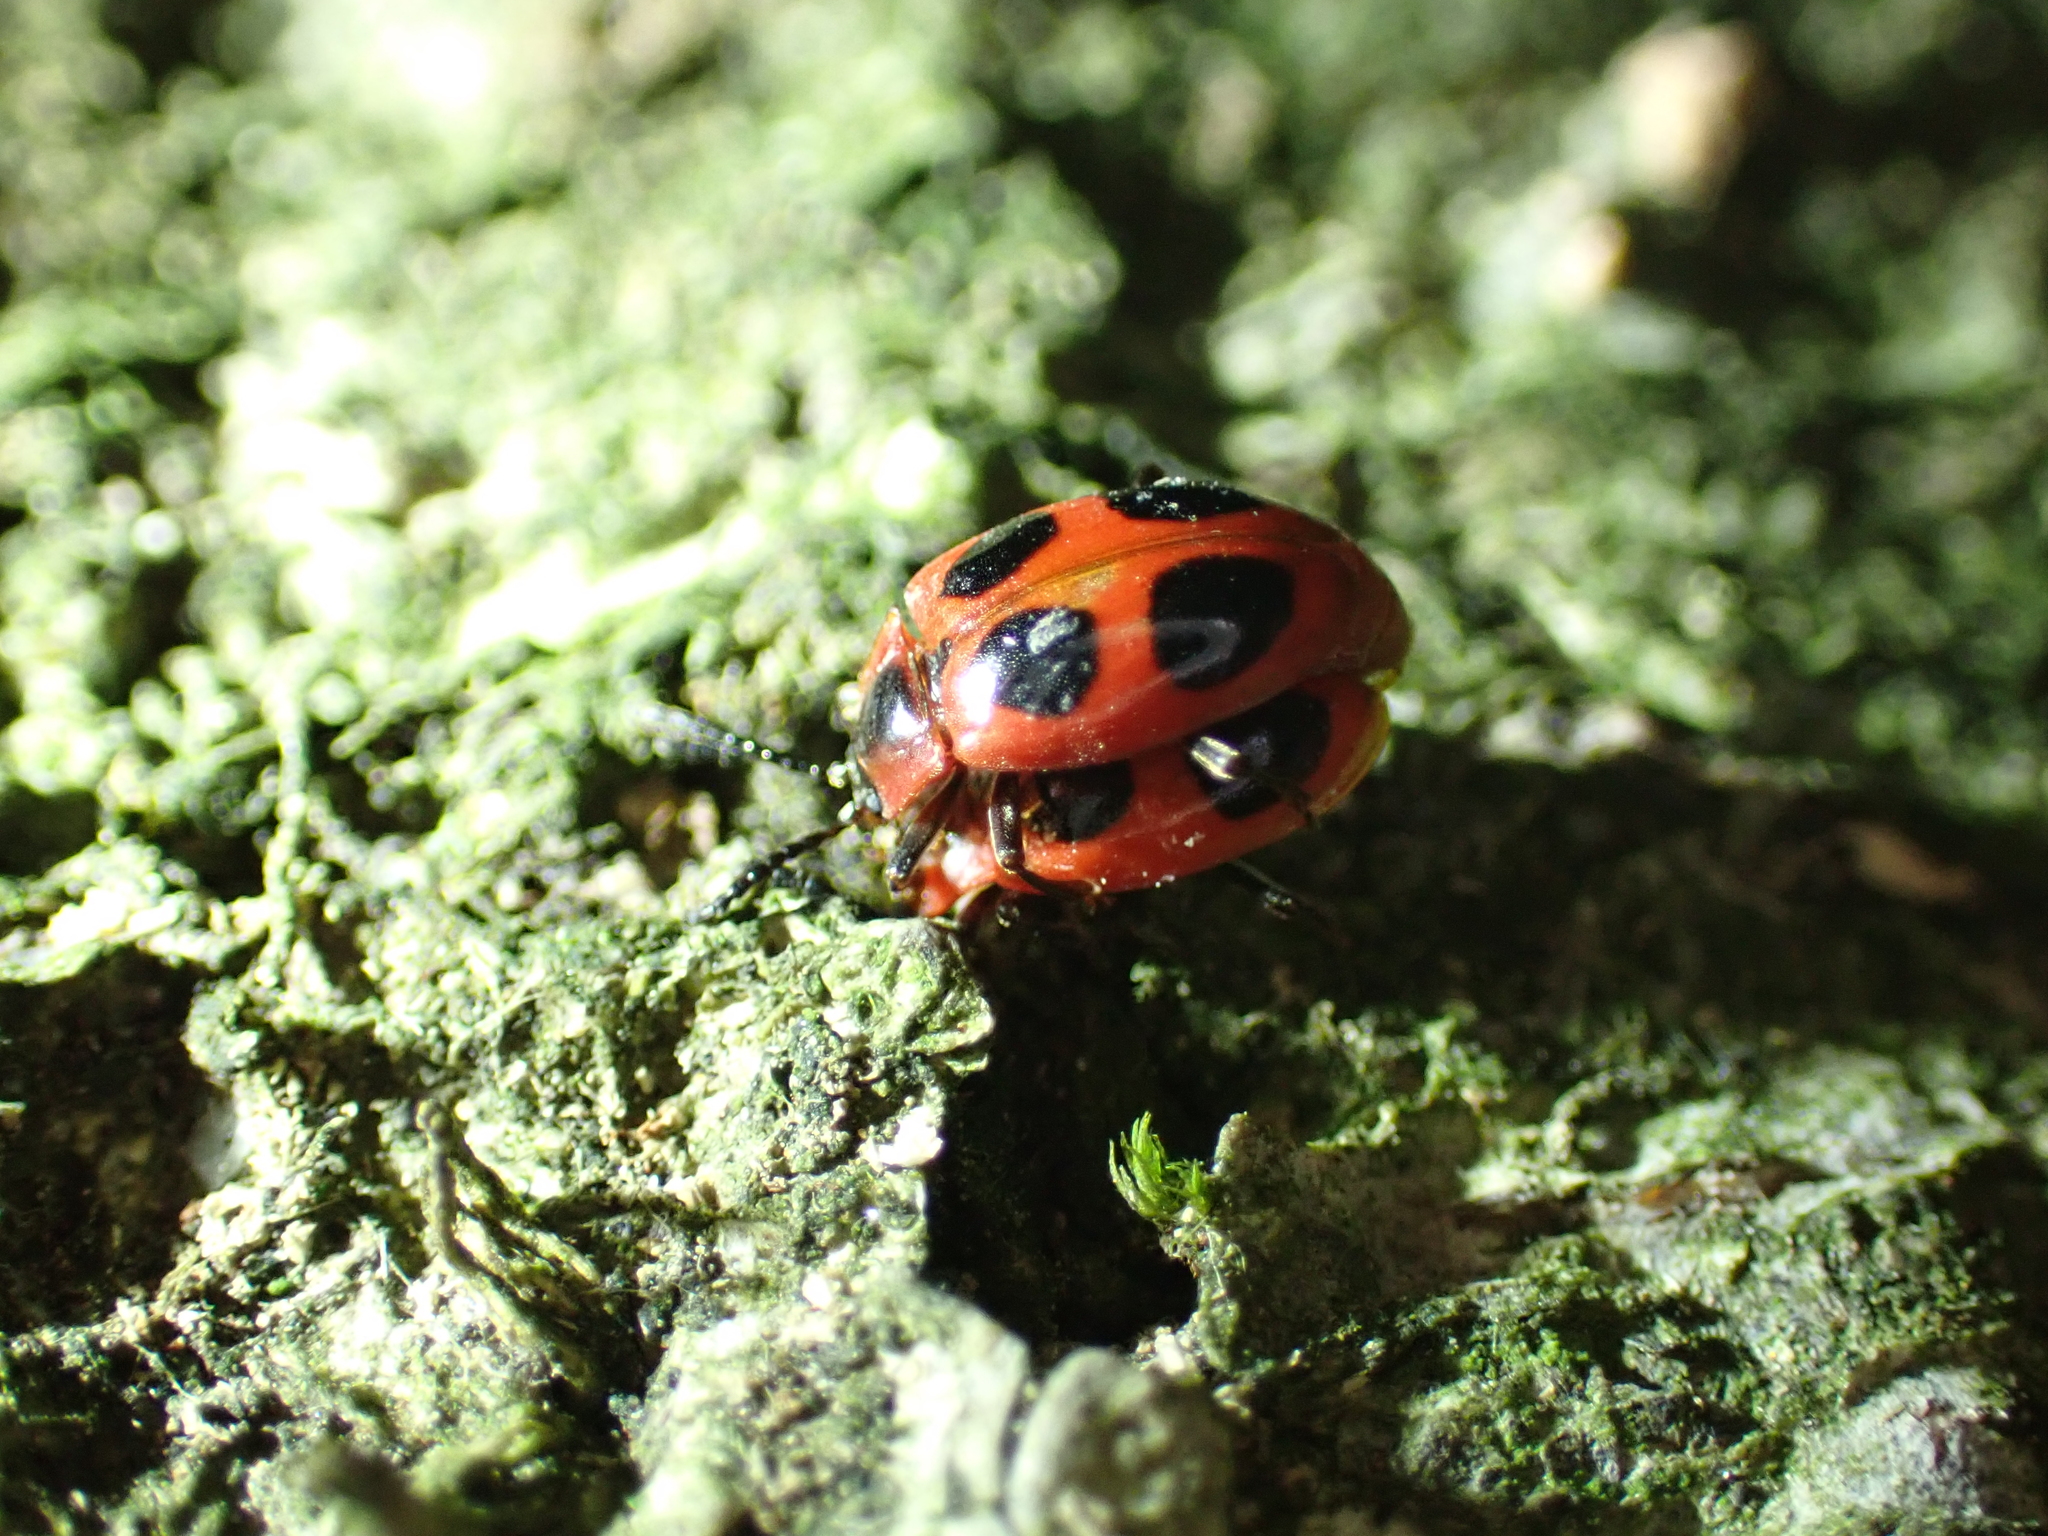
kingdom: Animalia
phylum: Arthropoda
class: Insecta
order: Coleoptera
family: Endomychidae
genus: Endomychus
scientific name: Endomychus coccineus
